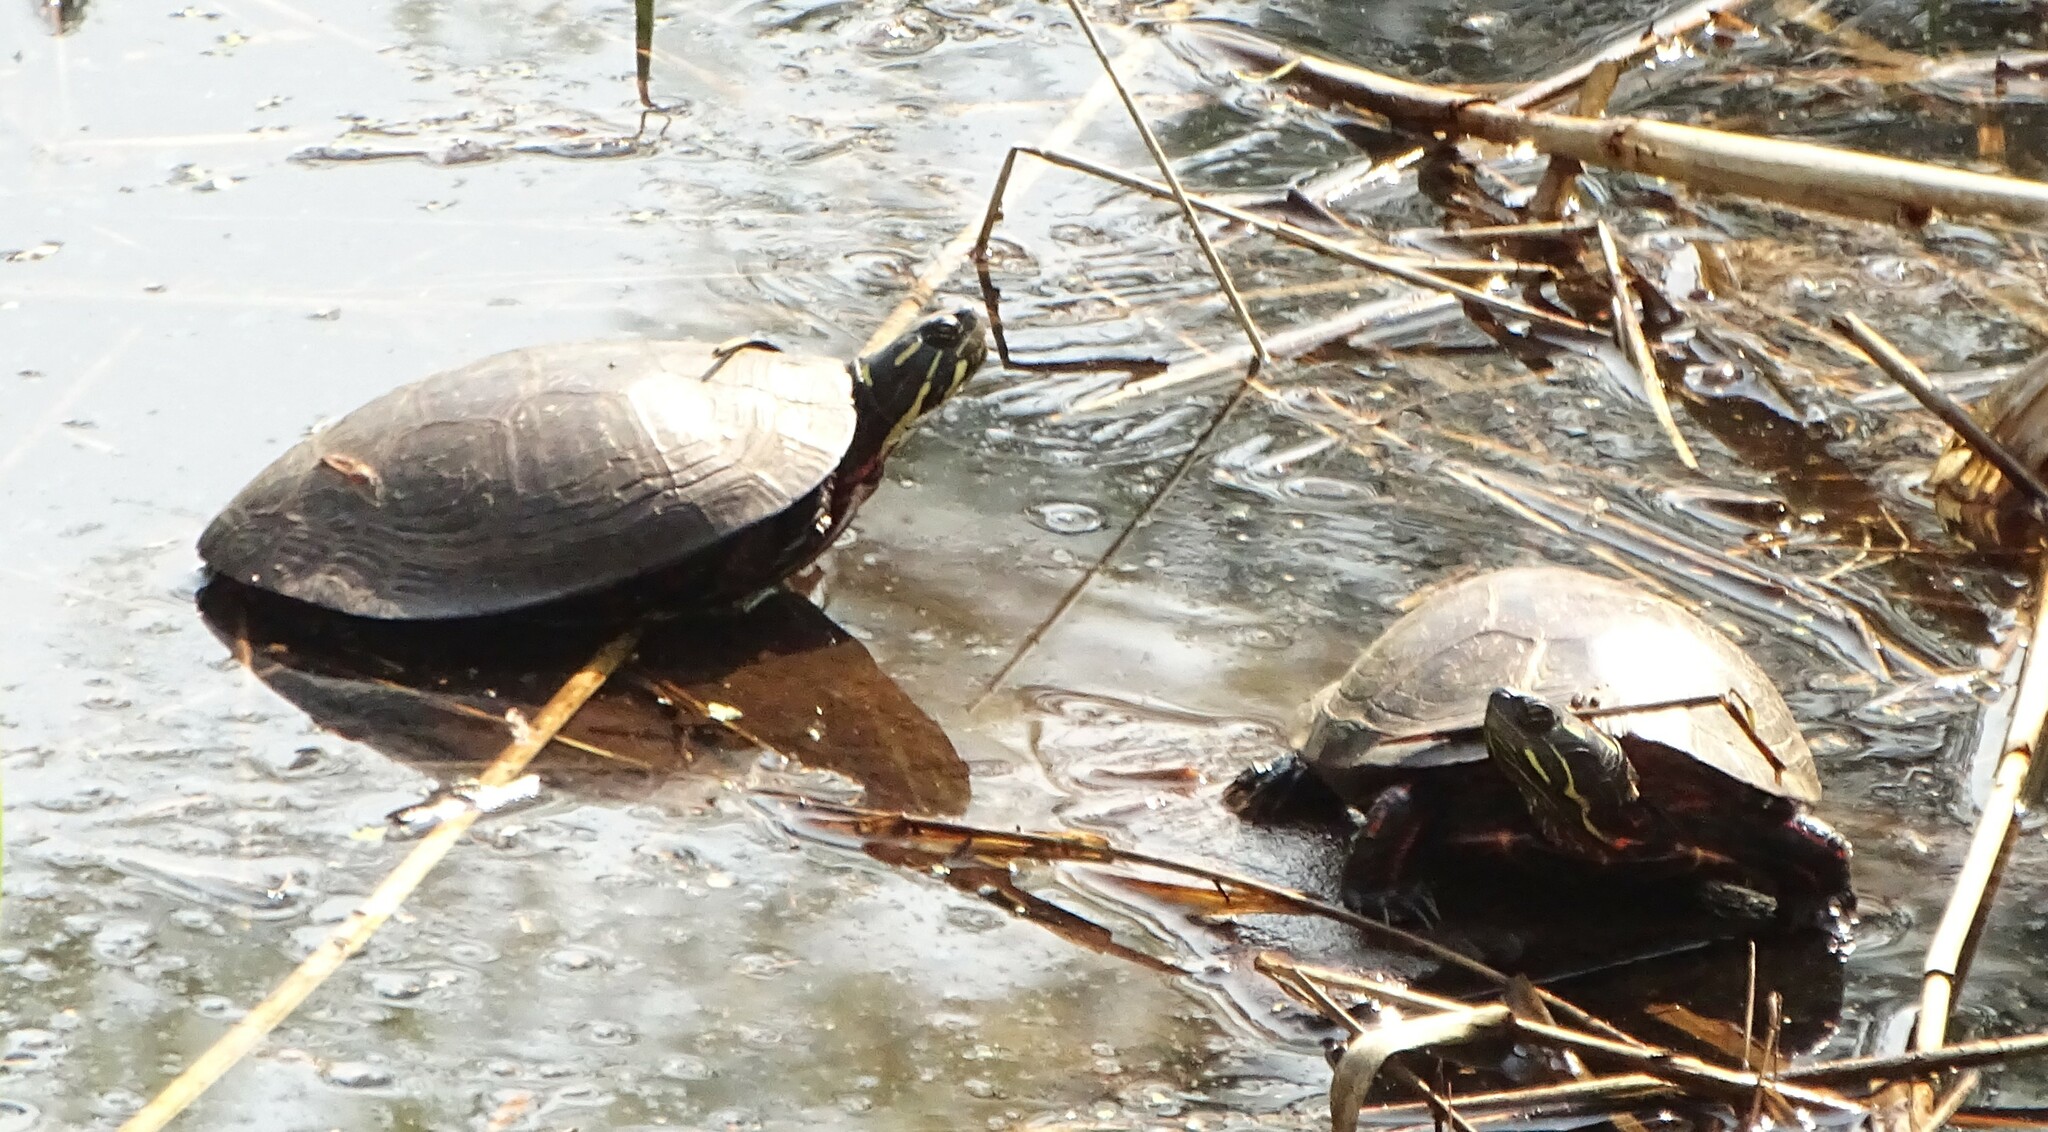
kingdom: Animalia
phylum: Chordata
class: Testudines
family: Emydidae
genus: Chrysemys
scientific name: Chrysemys picta
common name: Painted turtle
